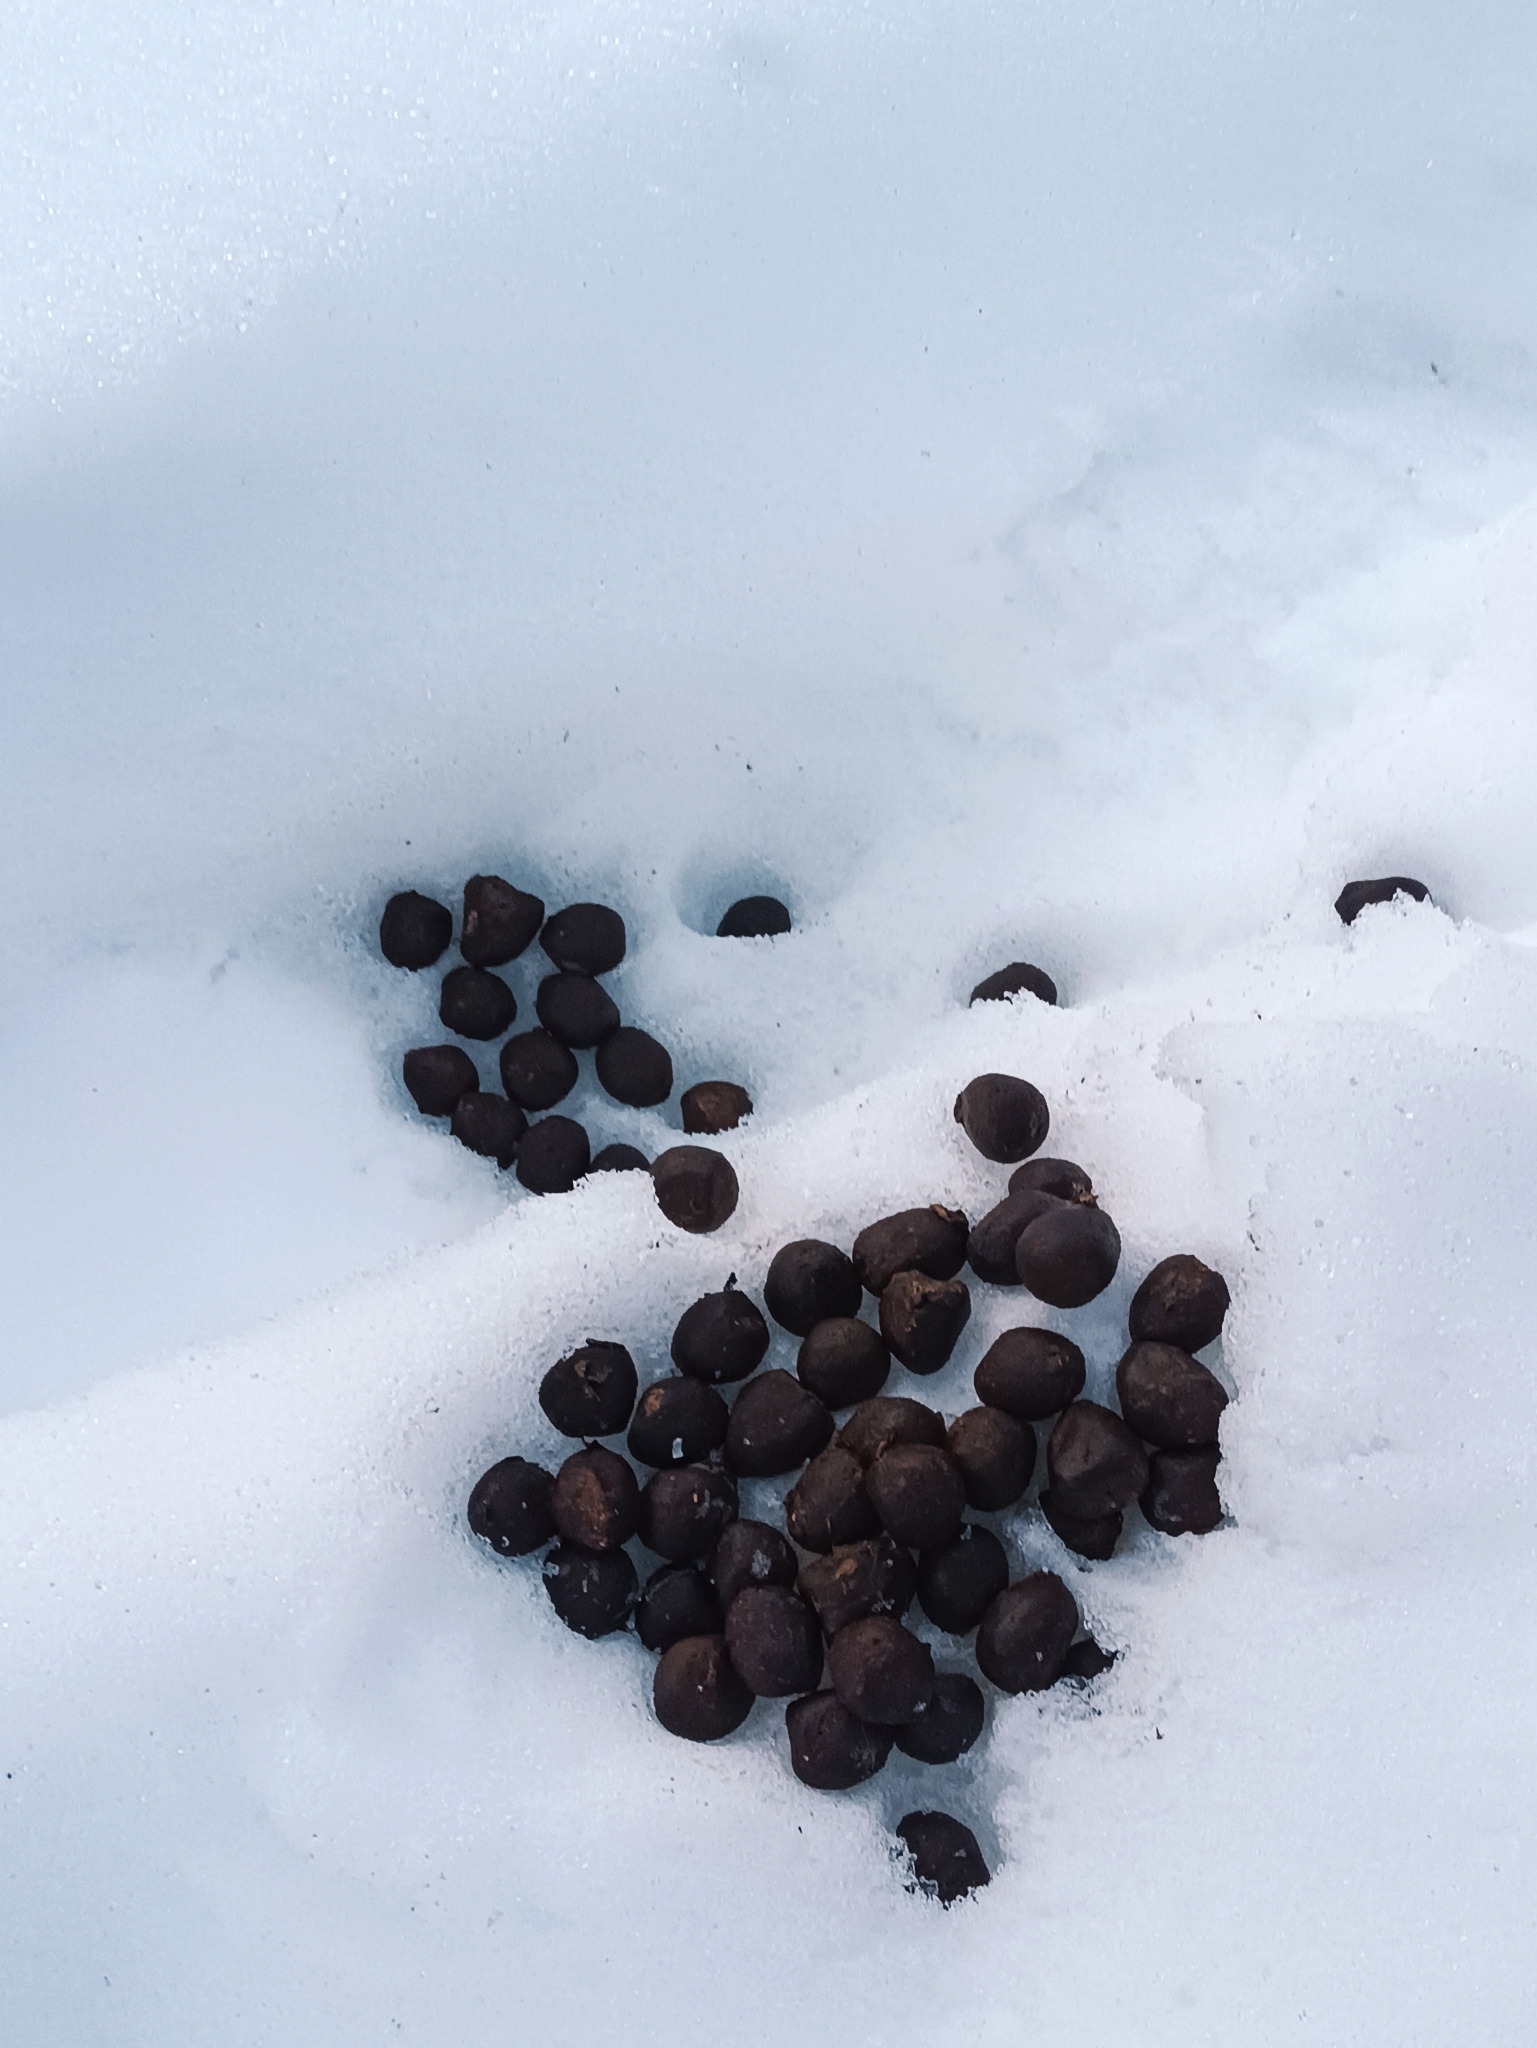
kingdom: Animalia
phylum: Chordata
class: Mammalia
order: Artiodactyla
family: Cervidae
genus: Alces
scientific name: Alces alces
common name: Moose
